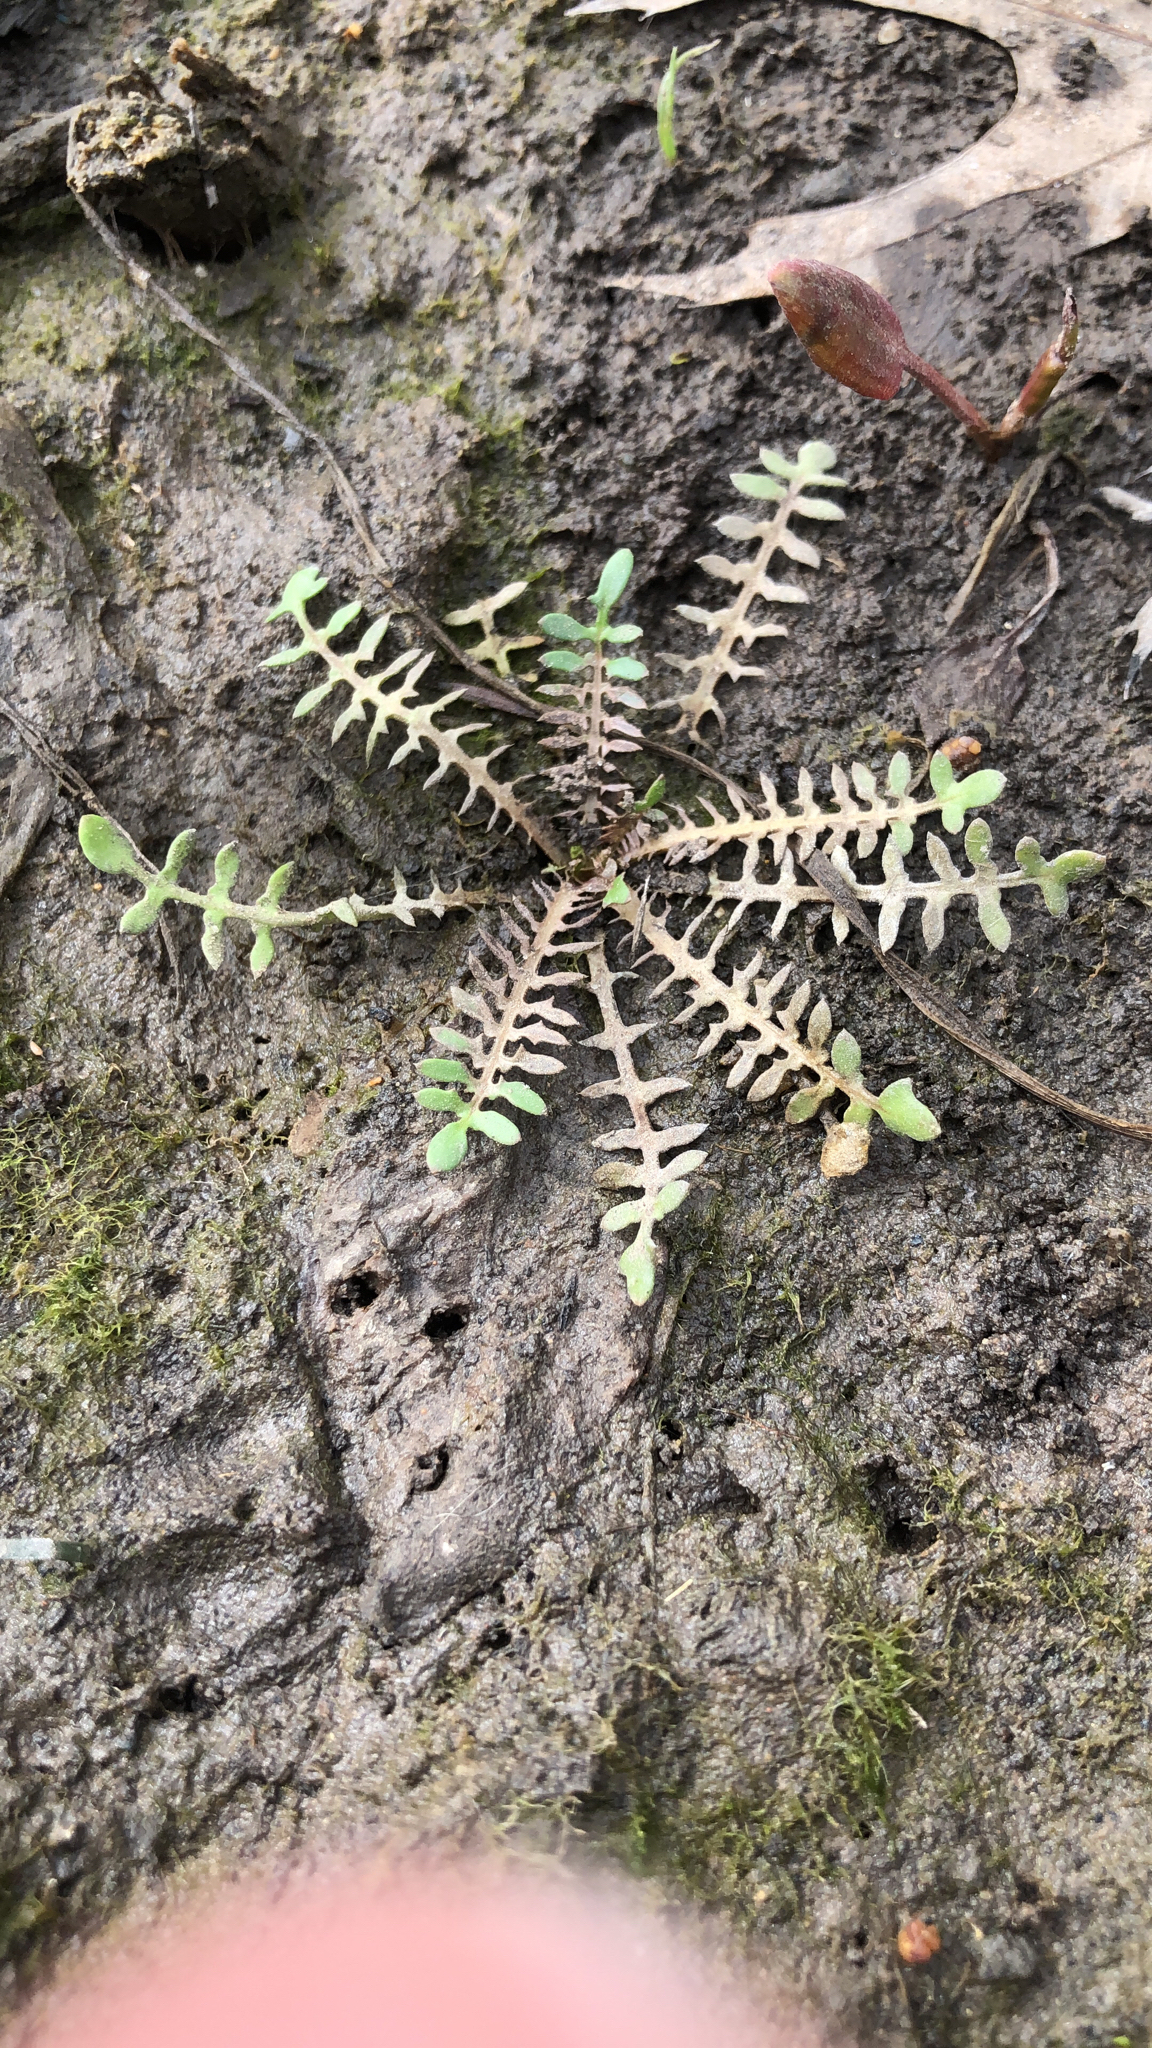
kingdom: Plantae
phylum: Tracheophyta
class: Magnoliopsida
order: Brassicales
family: Brassicaceae
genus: Planodes
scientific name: Planodes virginicum
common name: Virginia cress
